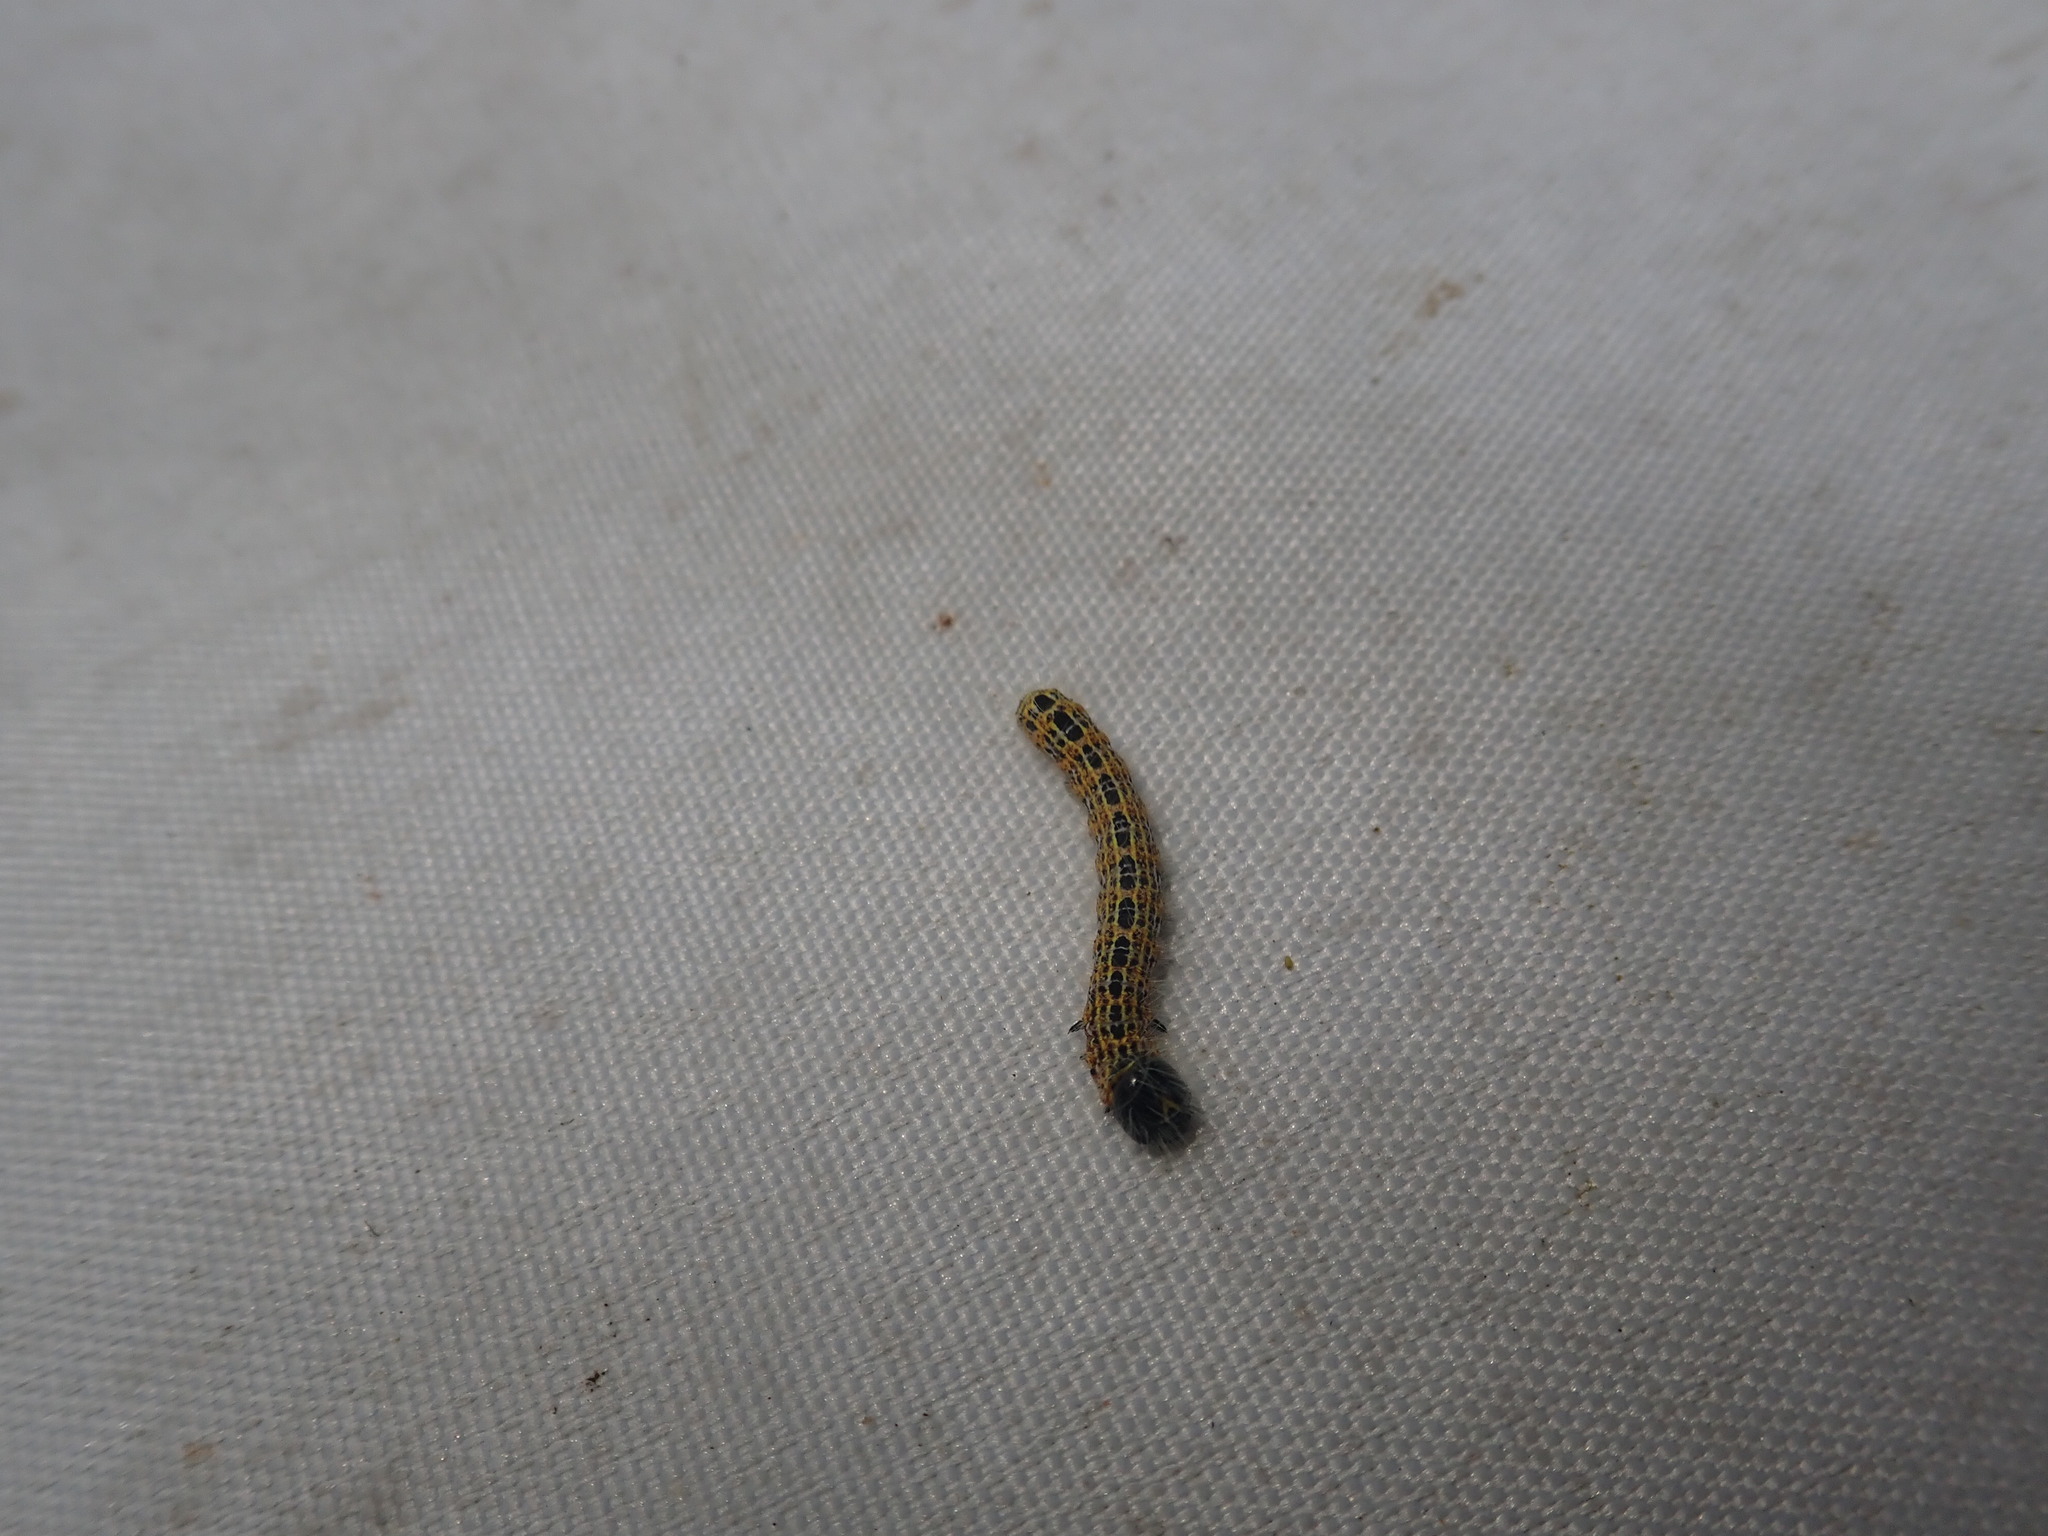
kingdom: Animalia
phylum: Arthropoda
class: Insecta
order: Lepidoptera
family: Notodontidae
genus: Phalera
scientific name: Phalera bucephala
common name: Buff-tip
